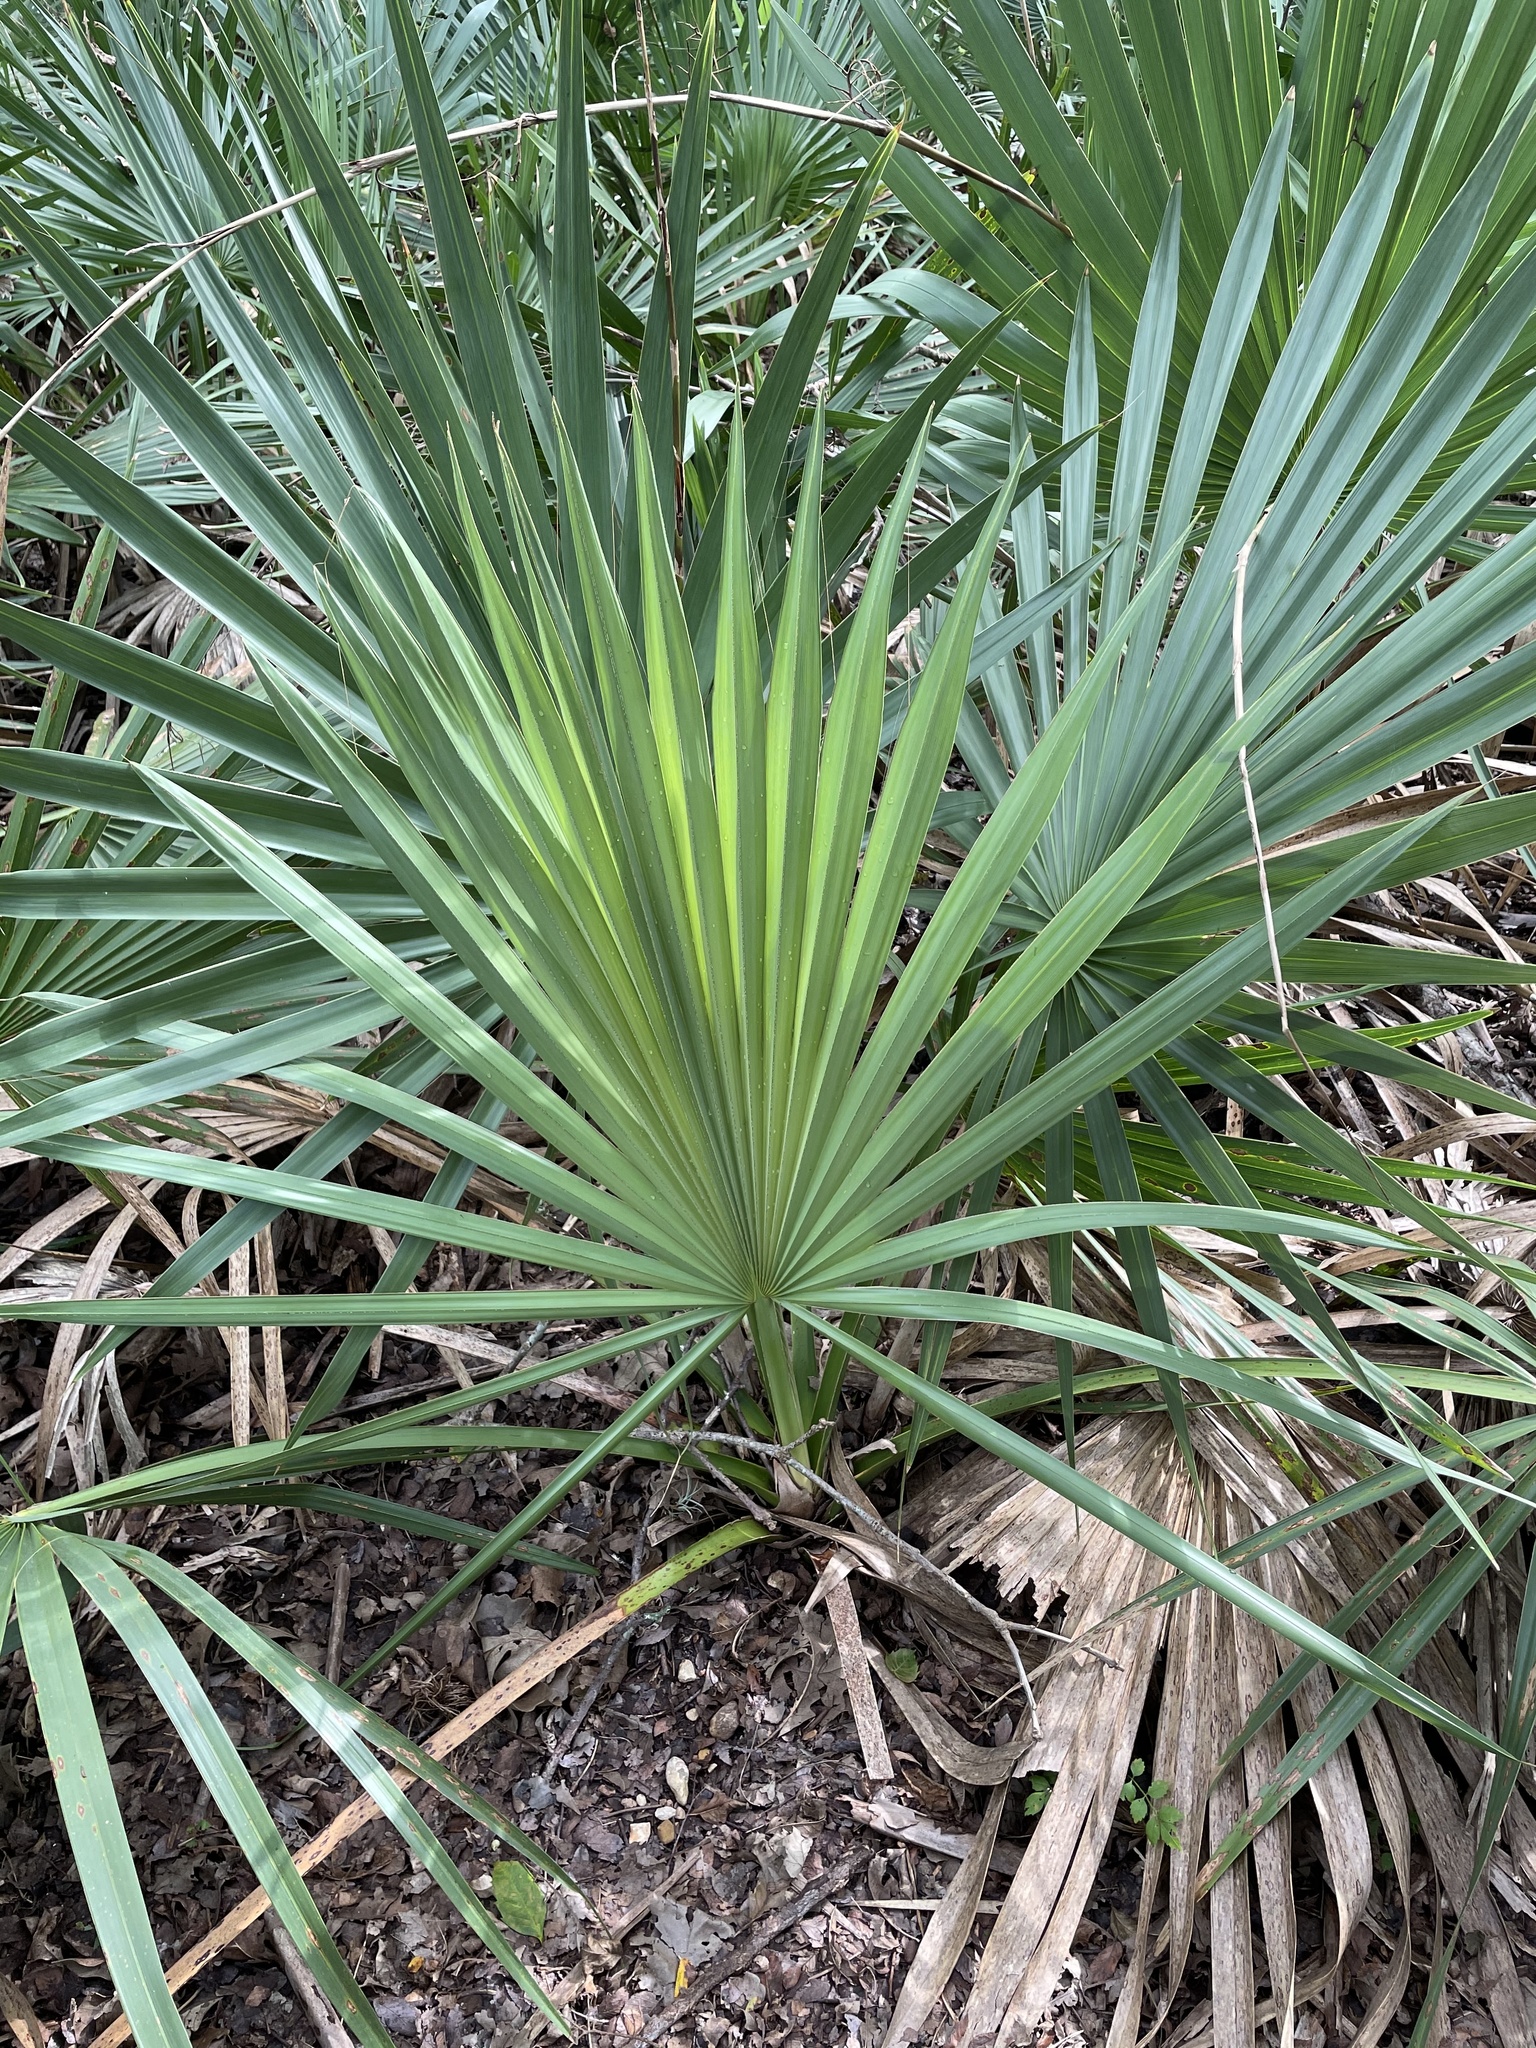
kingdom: Plantae
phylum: Tracheophyta
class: Liliopsida
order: Arecales
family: Arecaceae
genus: Sabal
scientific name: Sabal minor
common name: Dwarf palmetto
